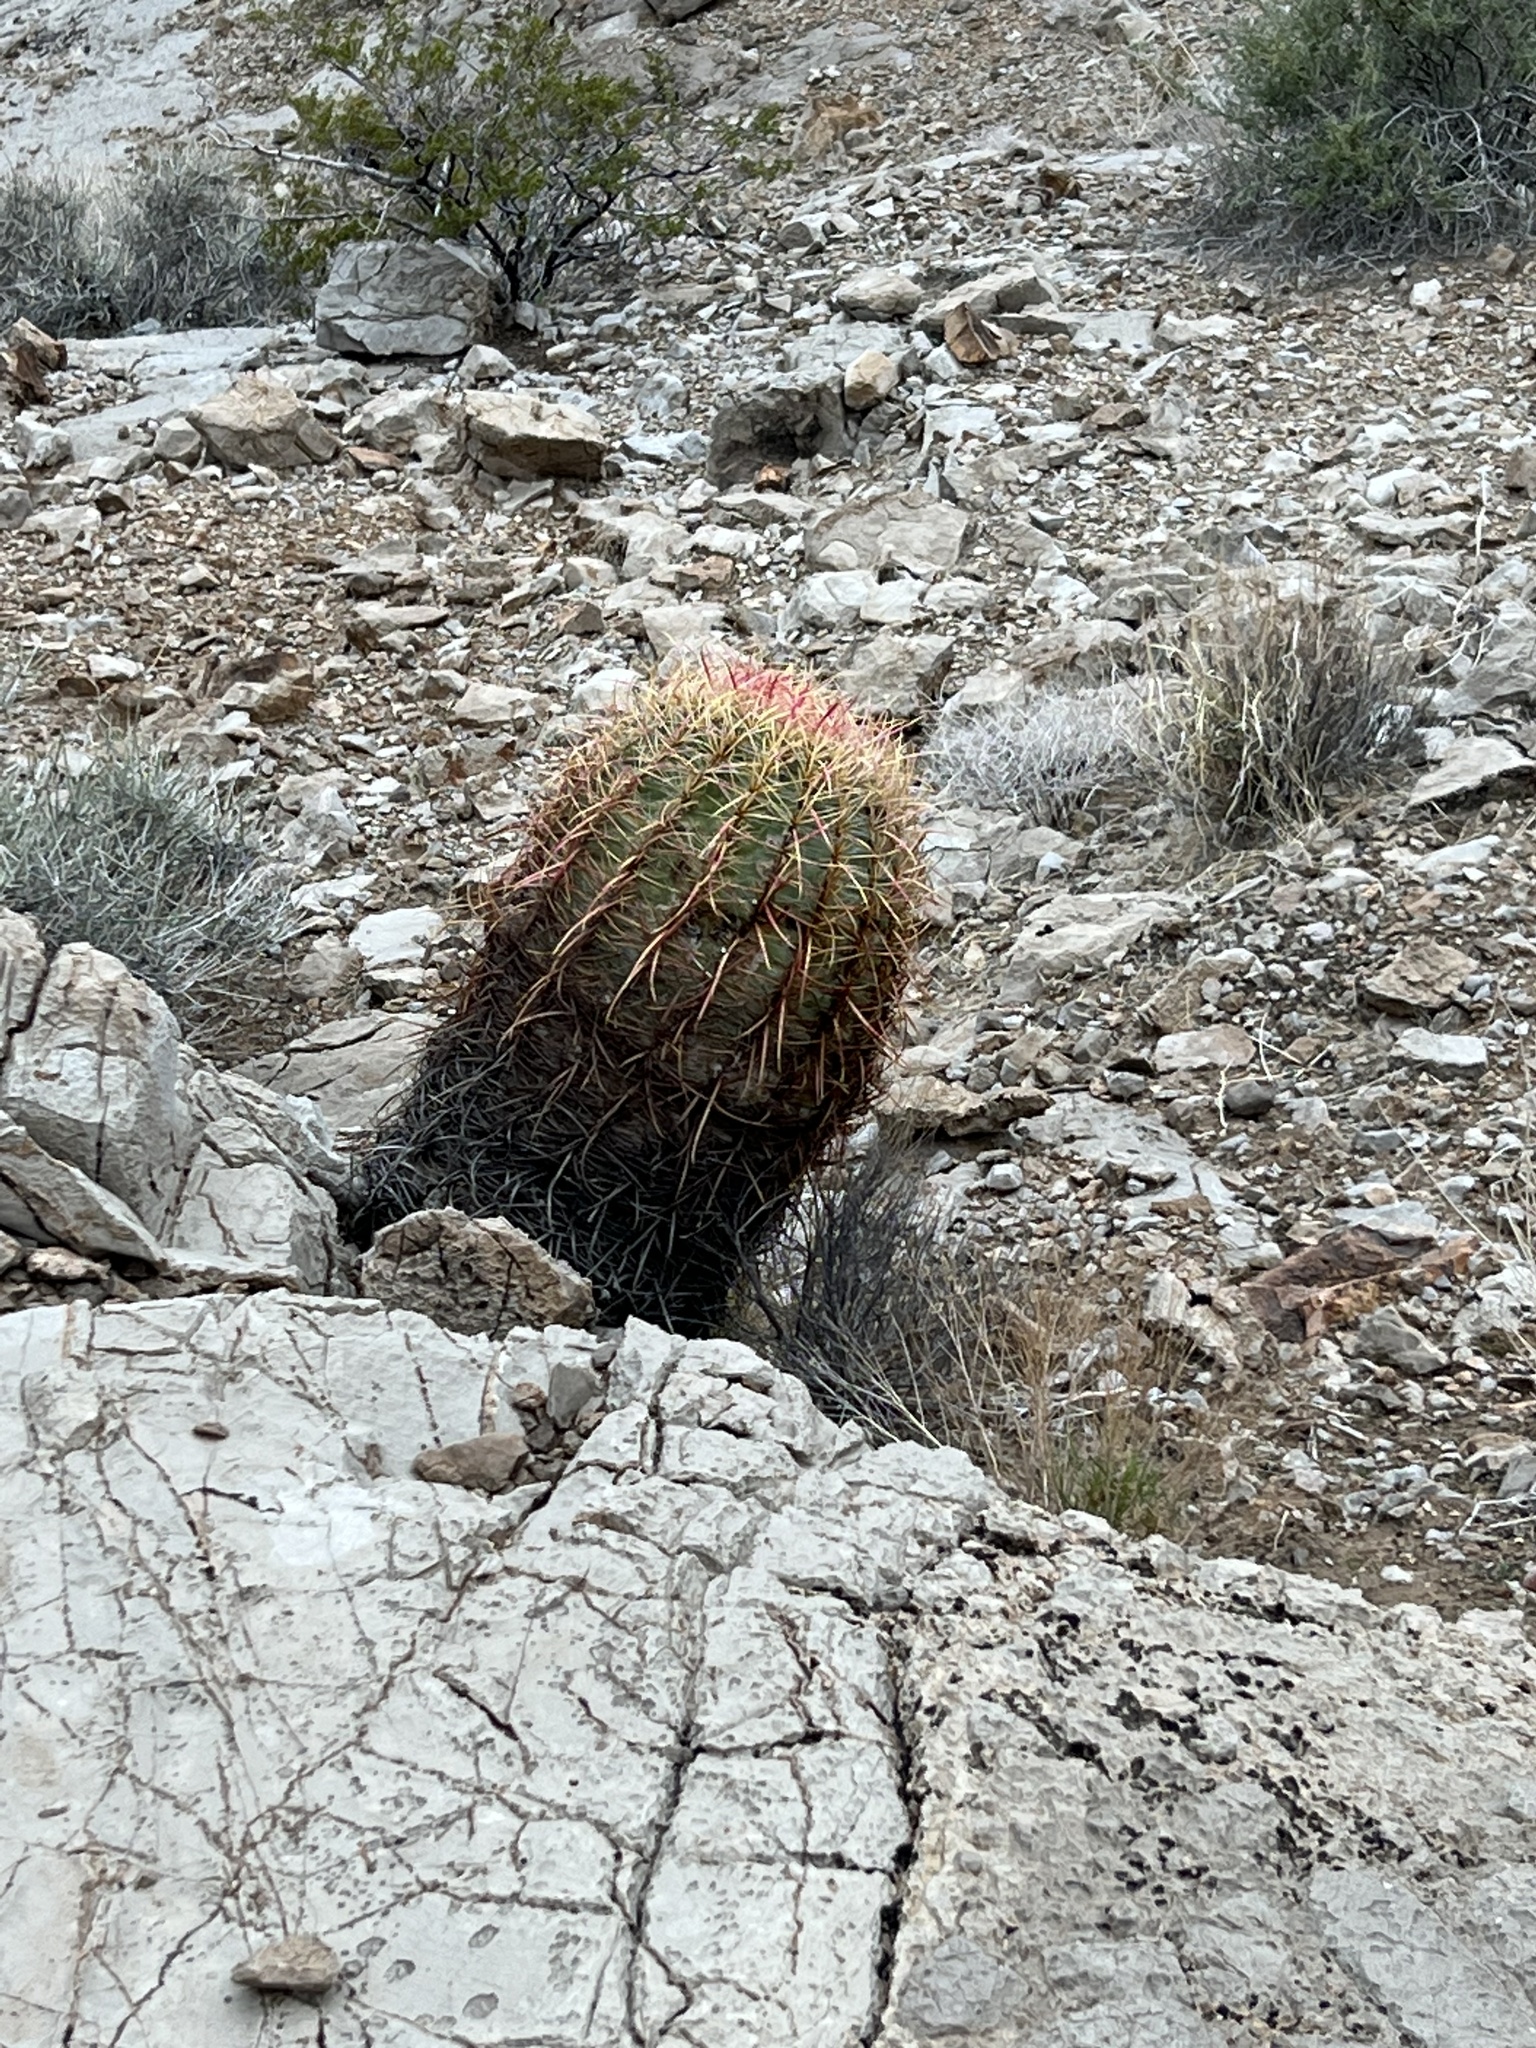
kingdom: Plantae
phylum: Tracheophyta
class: Magnoliopsida
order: Caryophyllales
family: Cactaceae
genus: Ferocactus
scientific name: Ferocactus cylindraceus
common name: California barrel cactus
